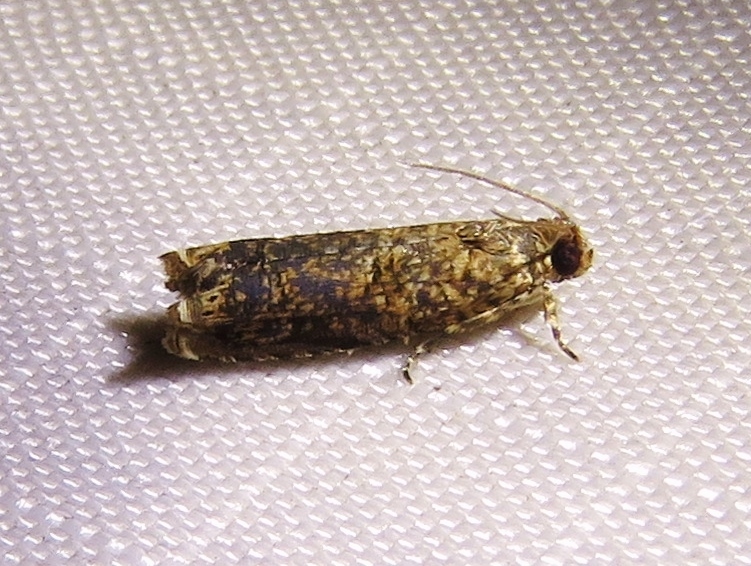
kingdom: Animalia
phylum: Arthropoda
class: Insecta
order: Lepidoptera
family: Tortricidae
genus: Episimus
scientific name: Episimus argutana
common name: Sumac leaftier moth
